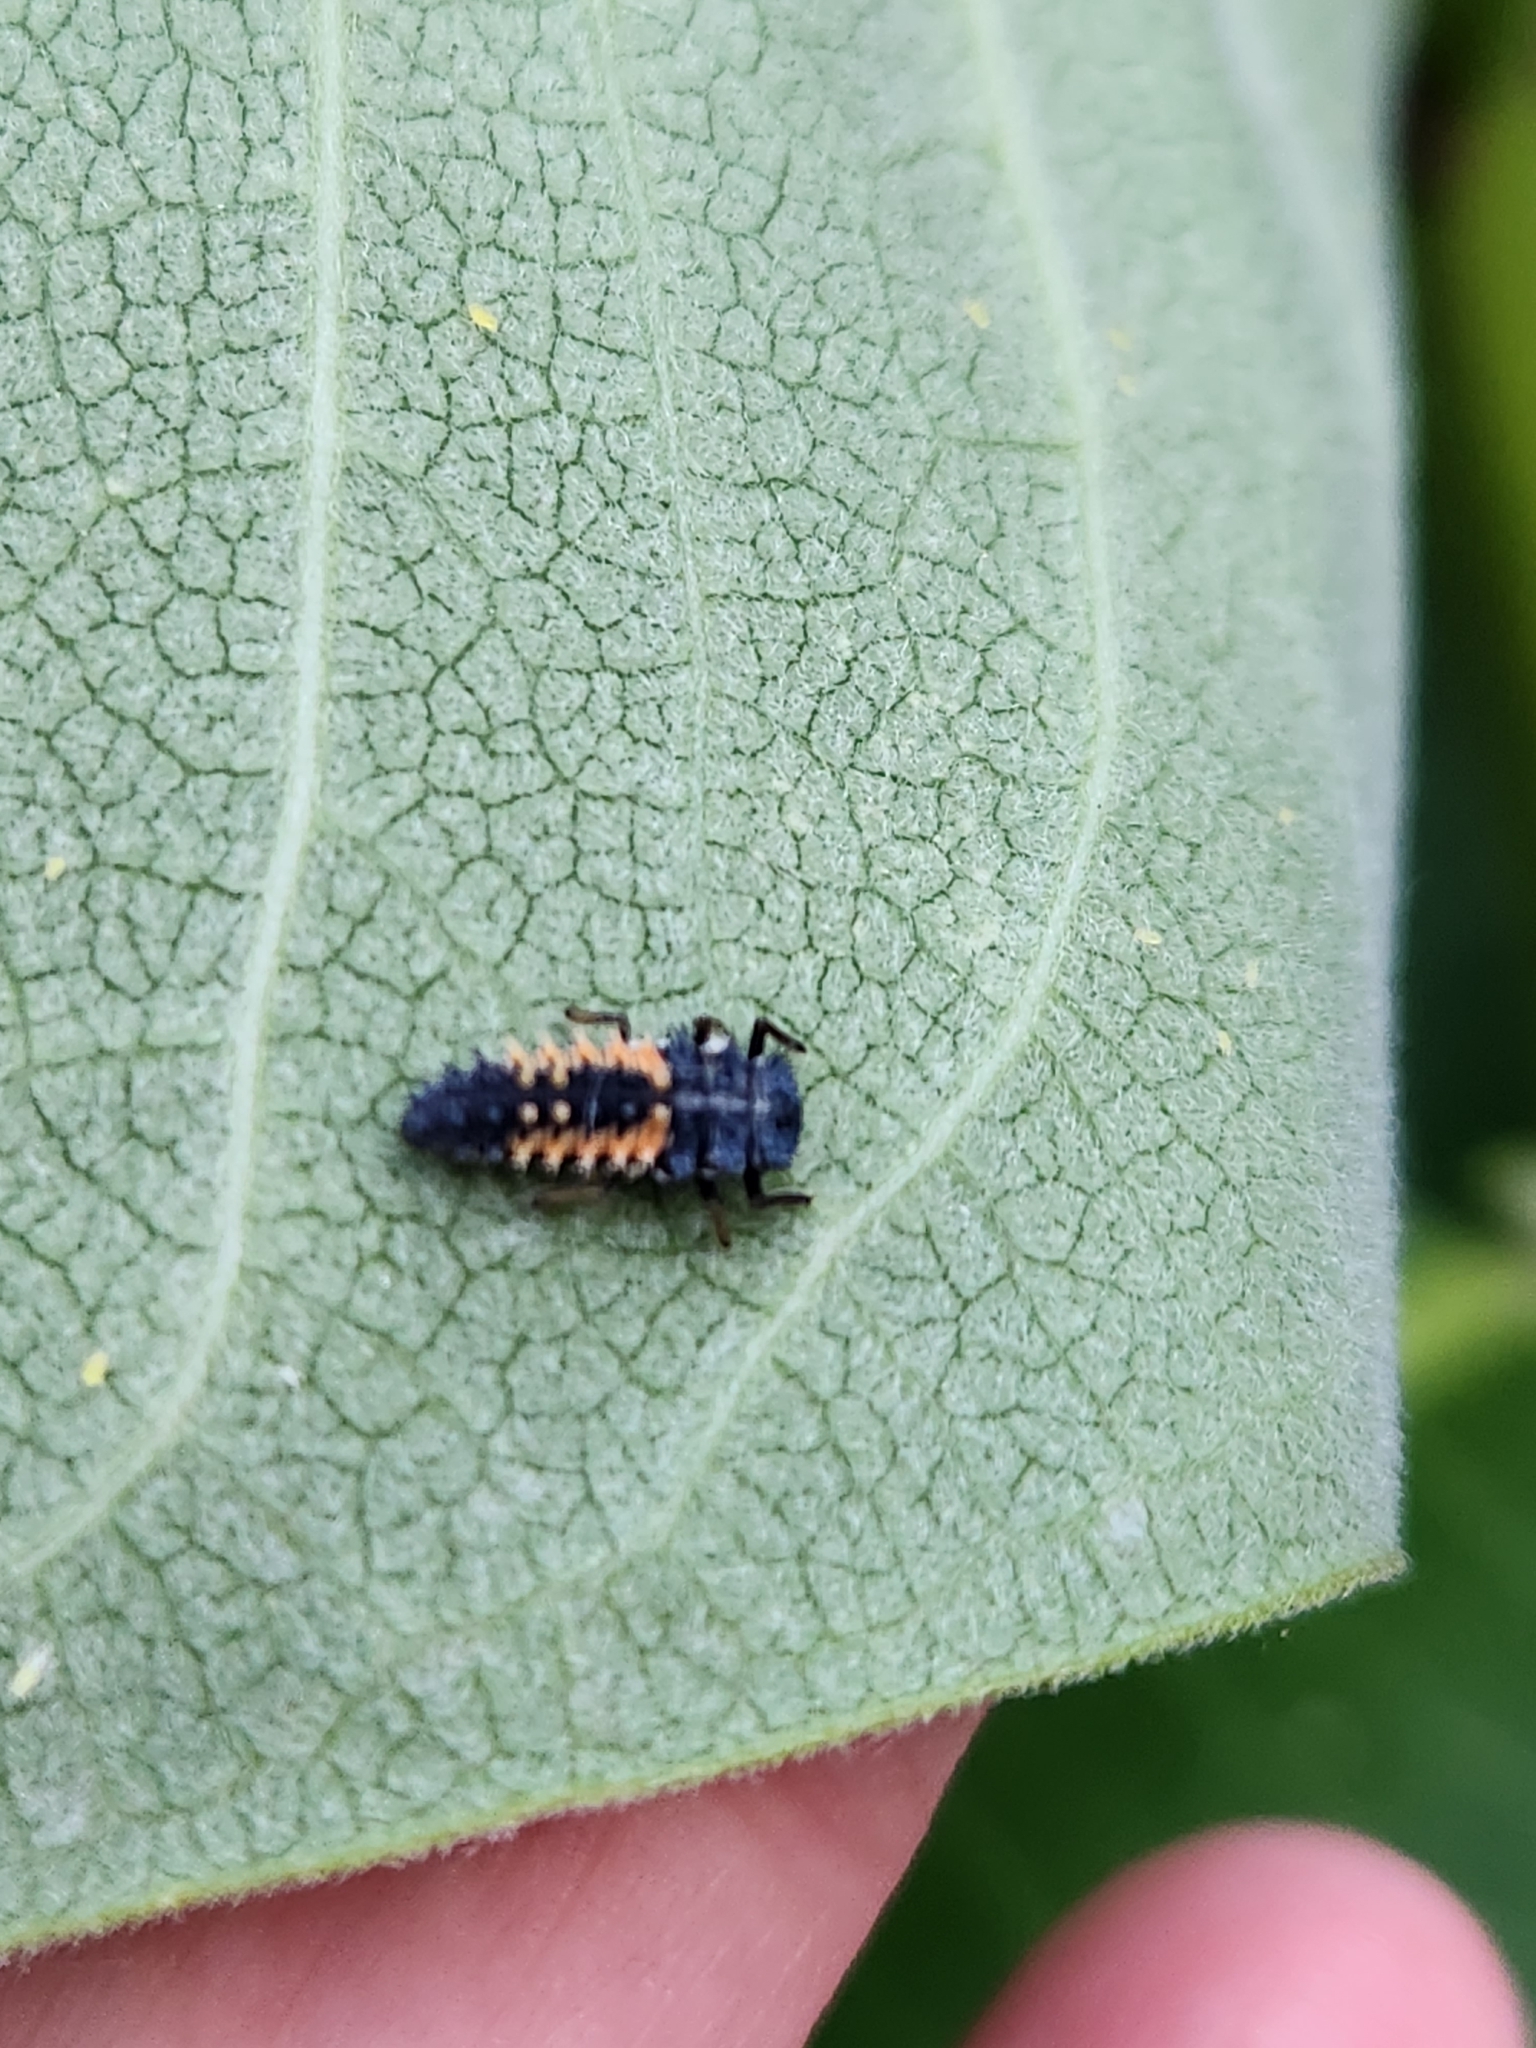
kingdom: Animalia
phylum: Arthropoda
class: Insecta
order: Coleoptera
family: Coccinellidae
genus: Harmonia
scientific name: Harmonia axyridis
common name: Harlequin ladybird
